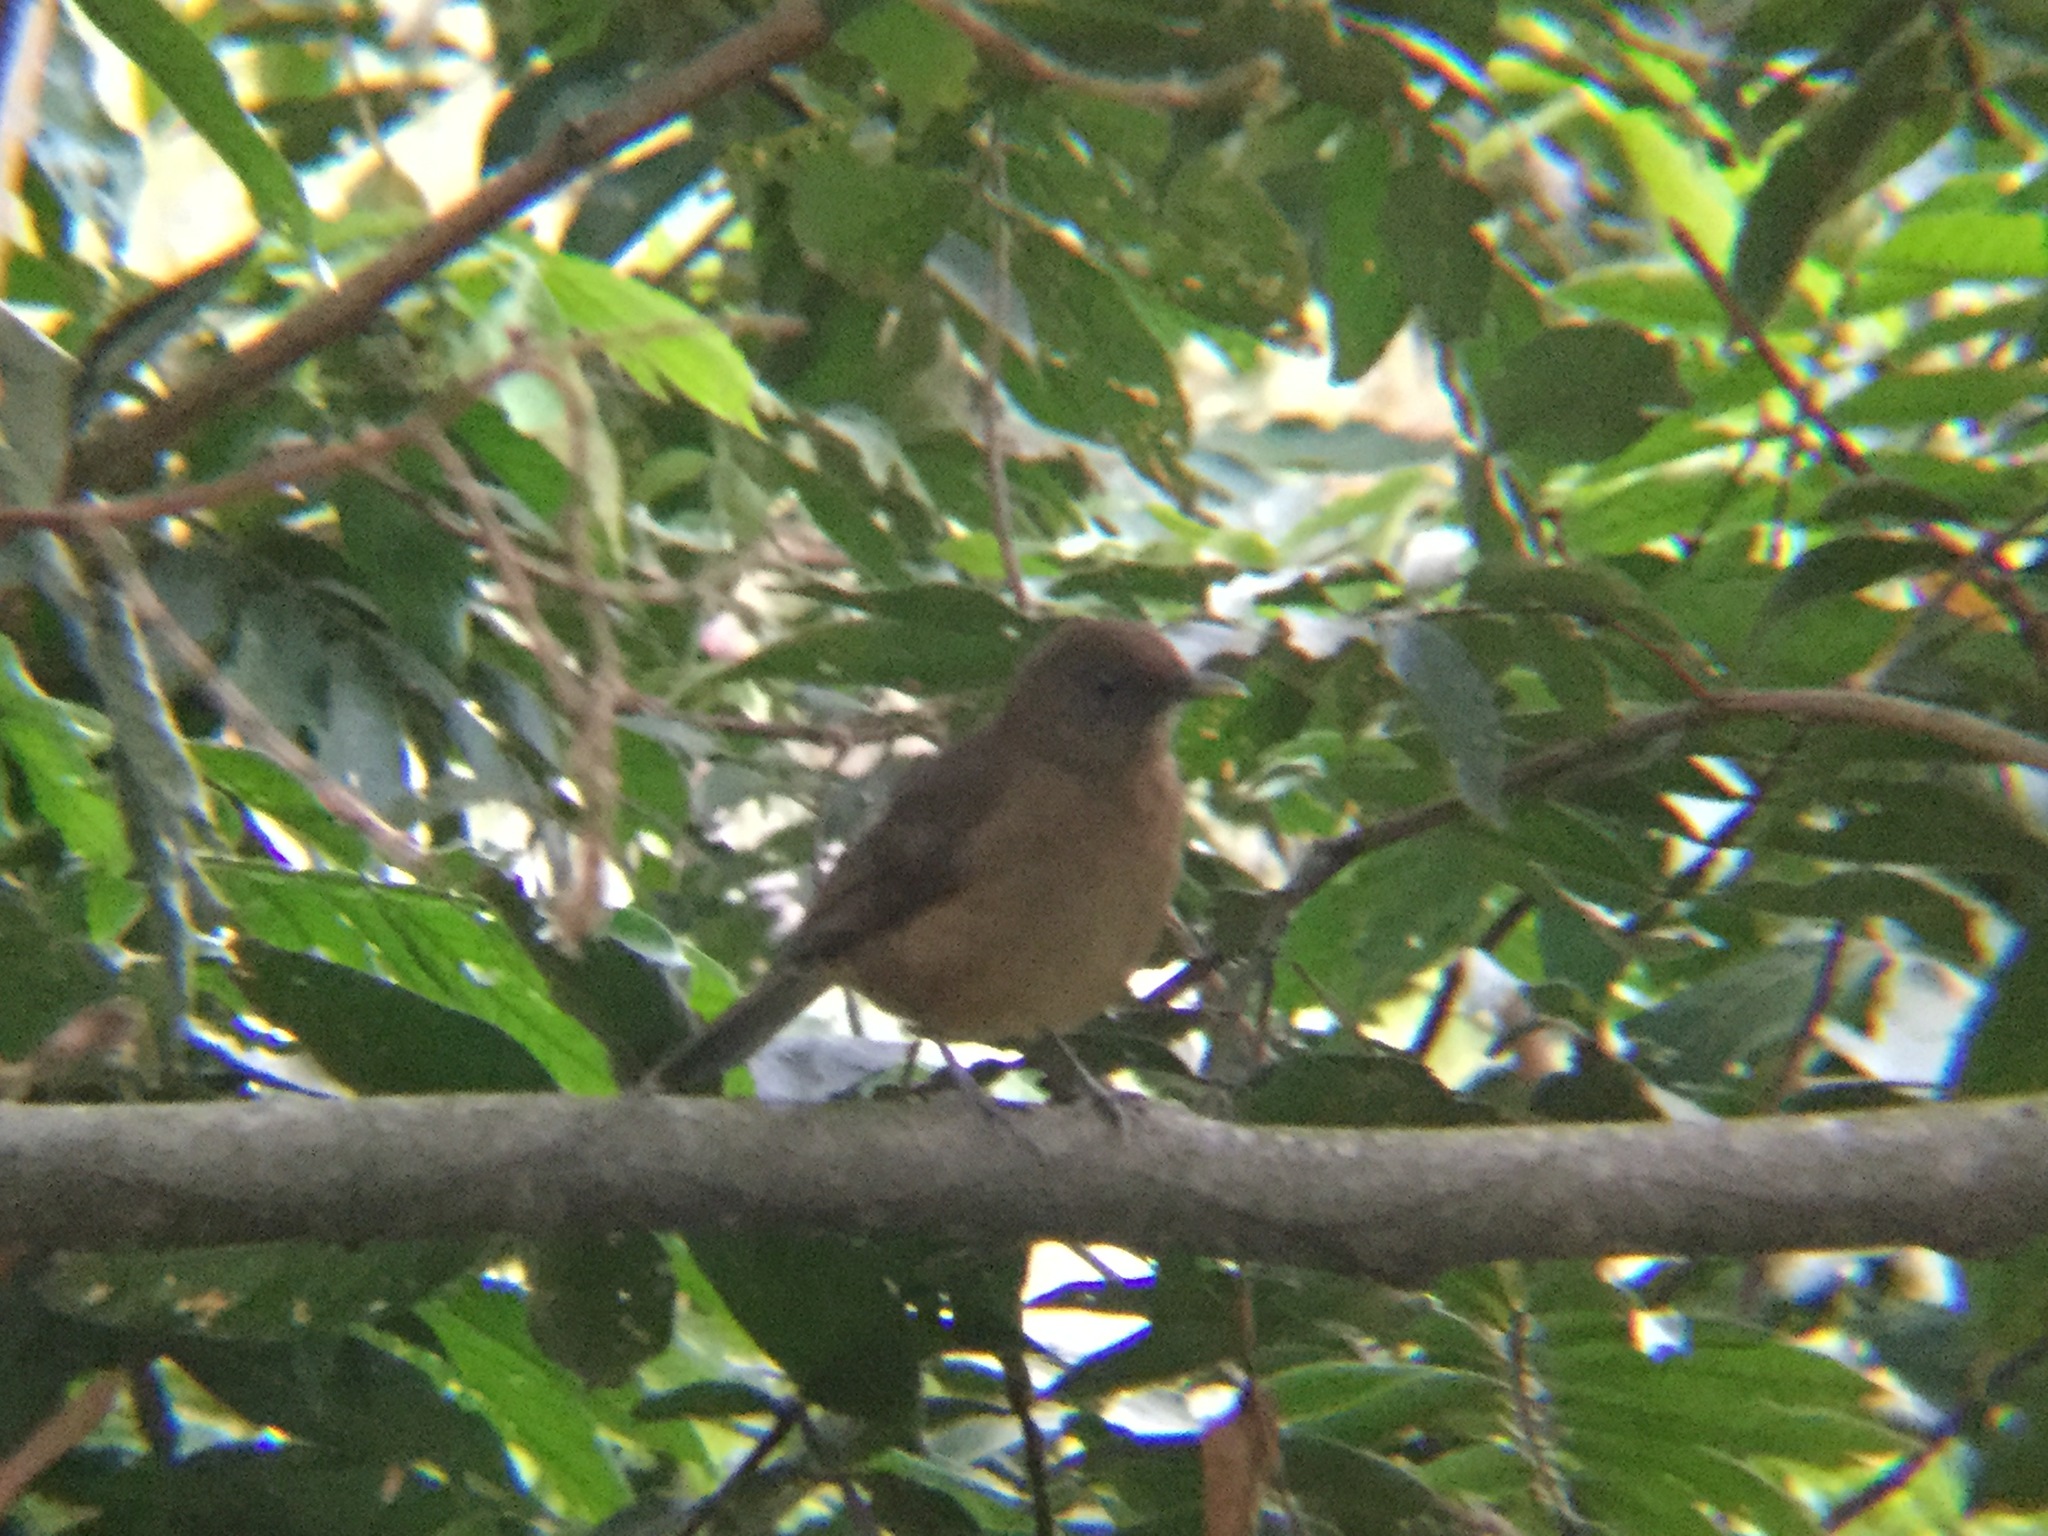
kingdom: Animalia
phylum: Chordata
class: Aves
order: Passeriformes
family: Turdidae
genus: Turdus
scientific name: Turdus grayi
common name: Clay-colored thrush
